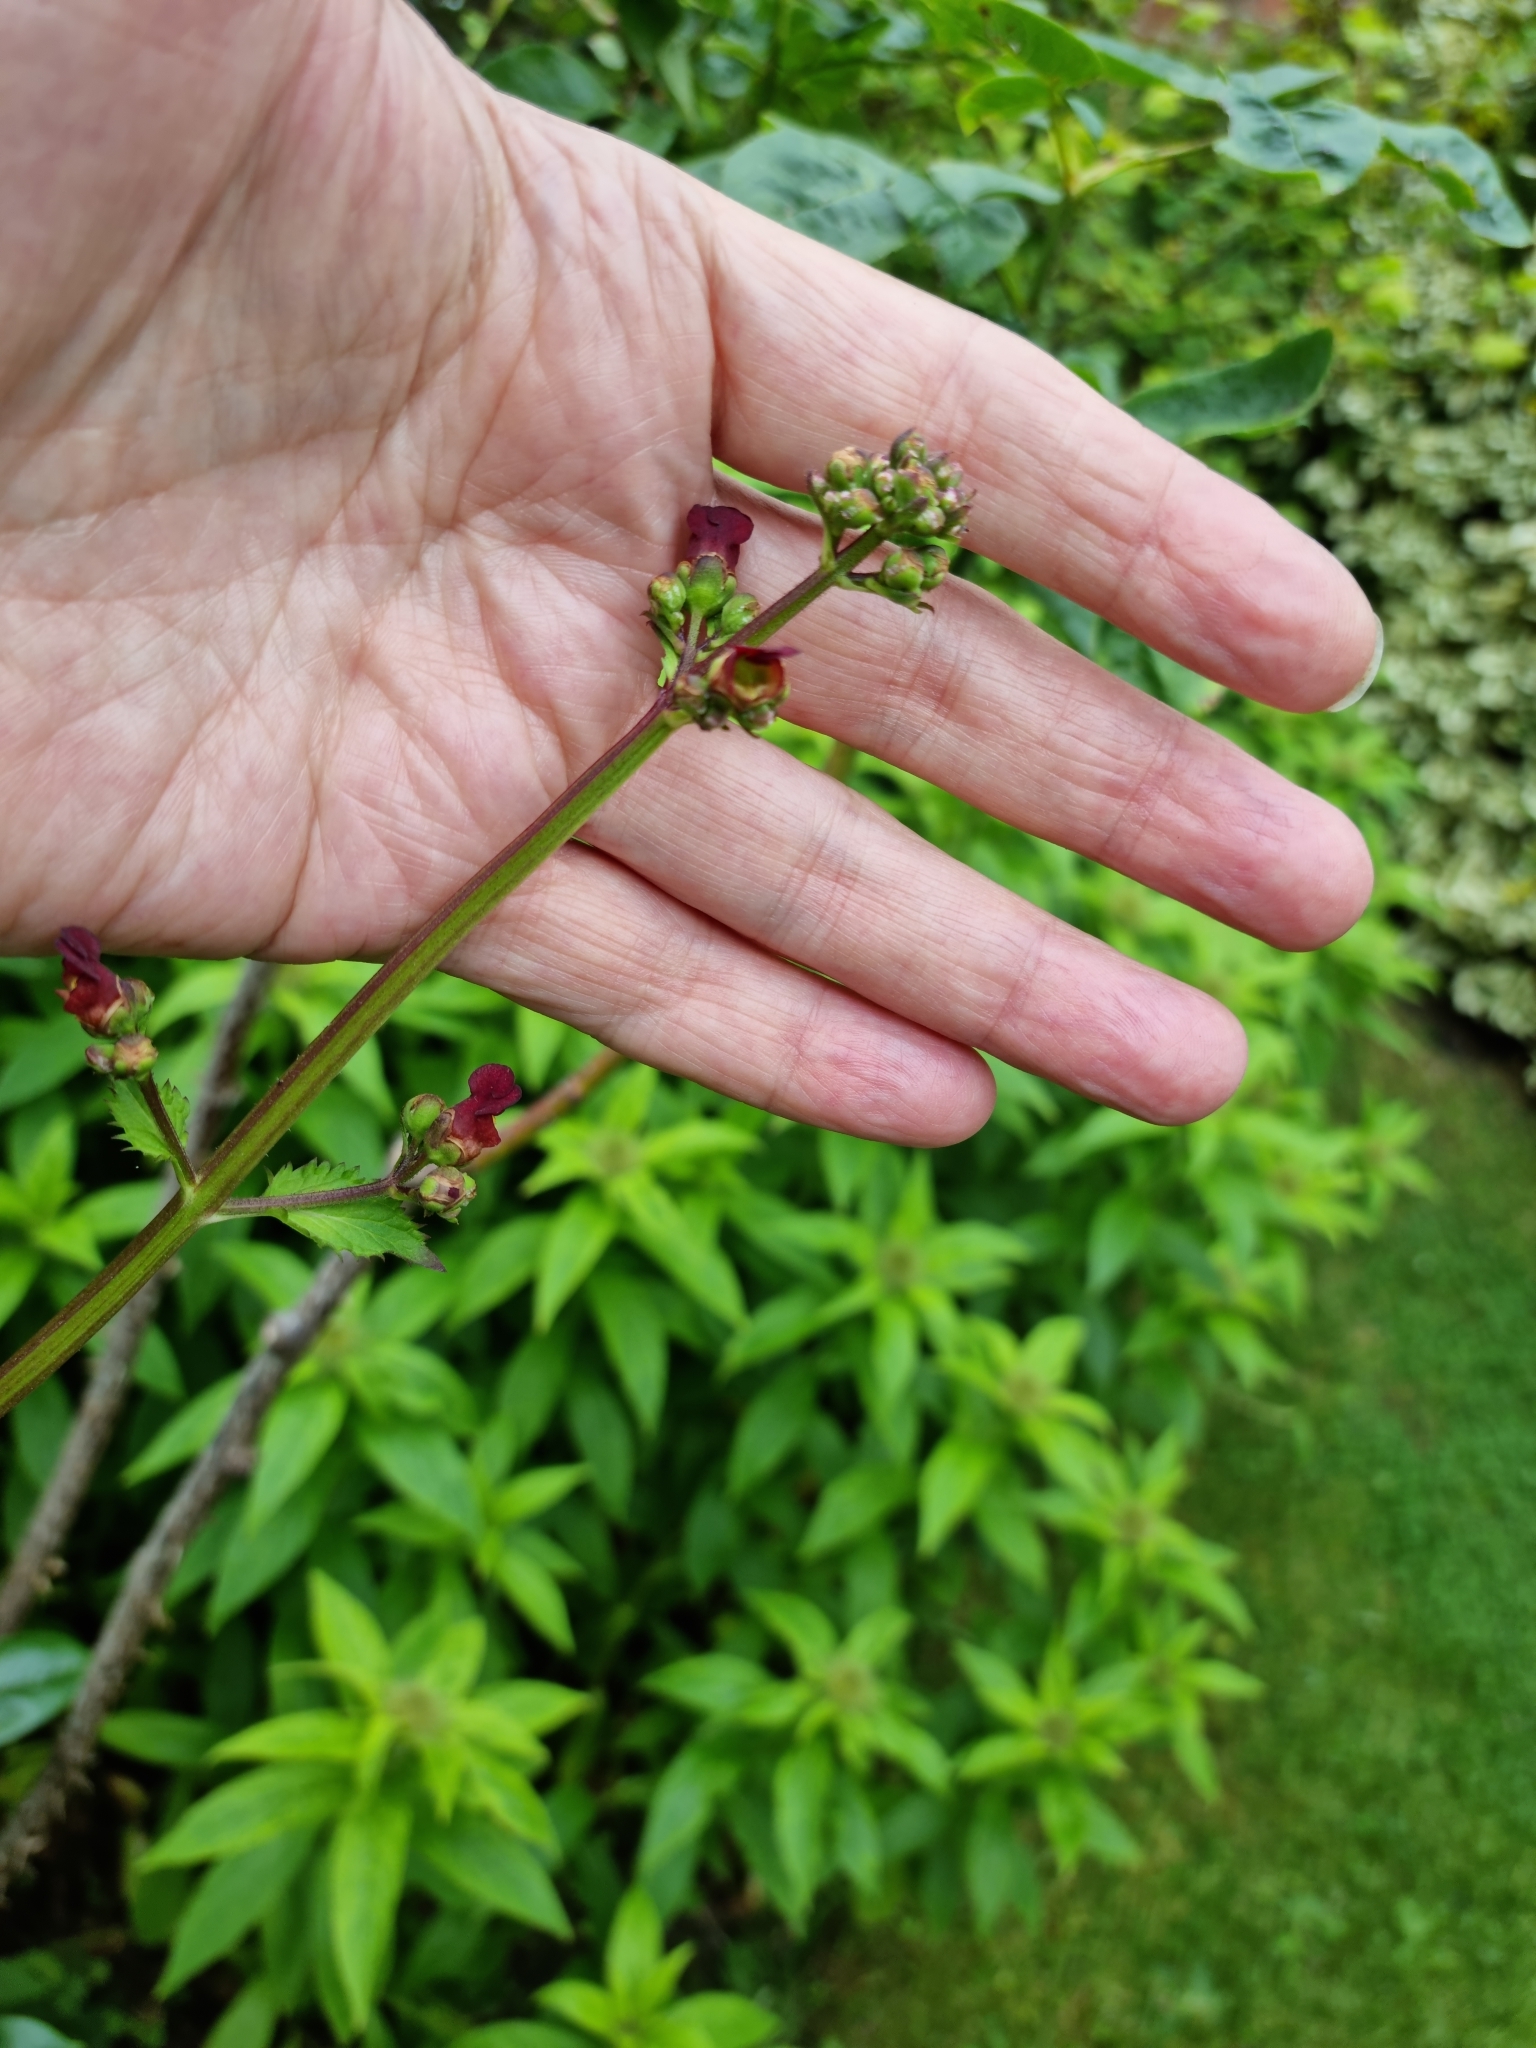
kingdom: Plantae
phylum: Tracheophyta
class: Magnoliopsida
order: Lamiales
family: Scrophulariaceae
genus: Scrophularia
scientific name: Scrophularia auriculata
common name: Water betony
